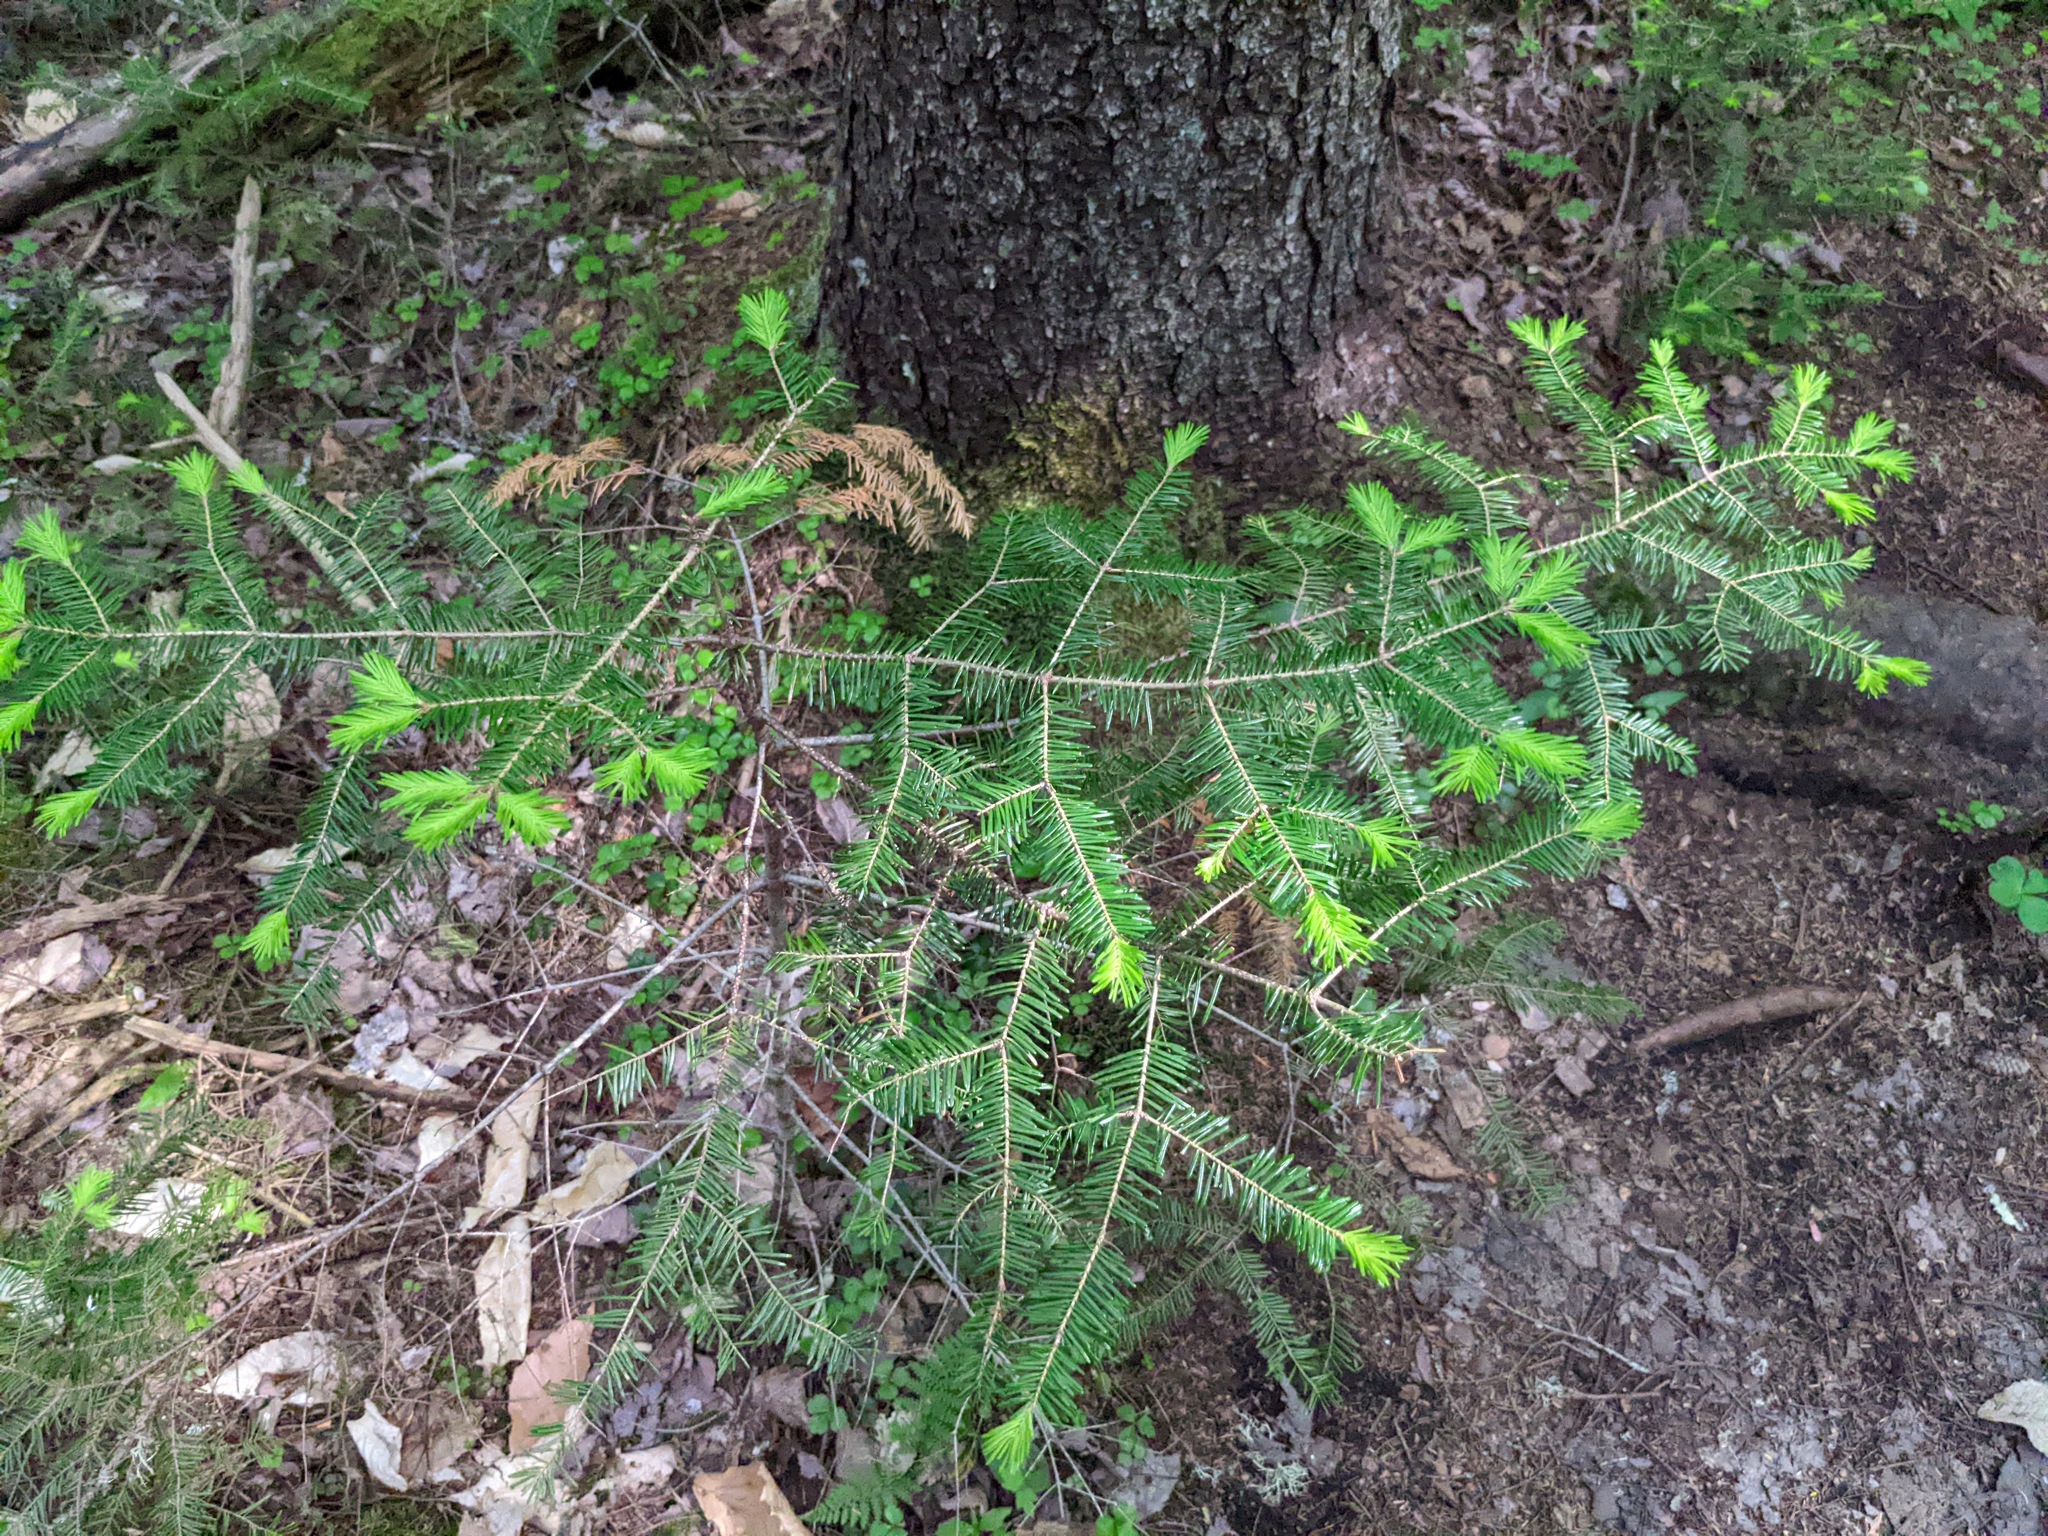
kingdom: Plantae
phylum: Tracheophyta
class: Pinopsida
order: Pinales
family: Pinaceae
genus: Abies
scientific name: Abies balsamea
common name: Balsam fir
